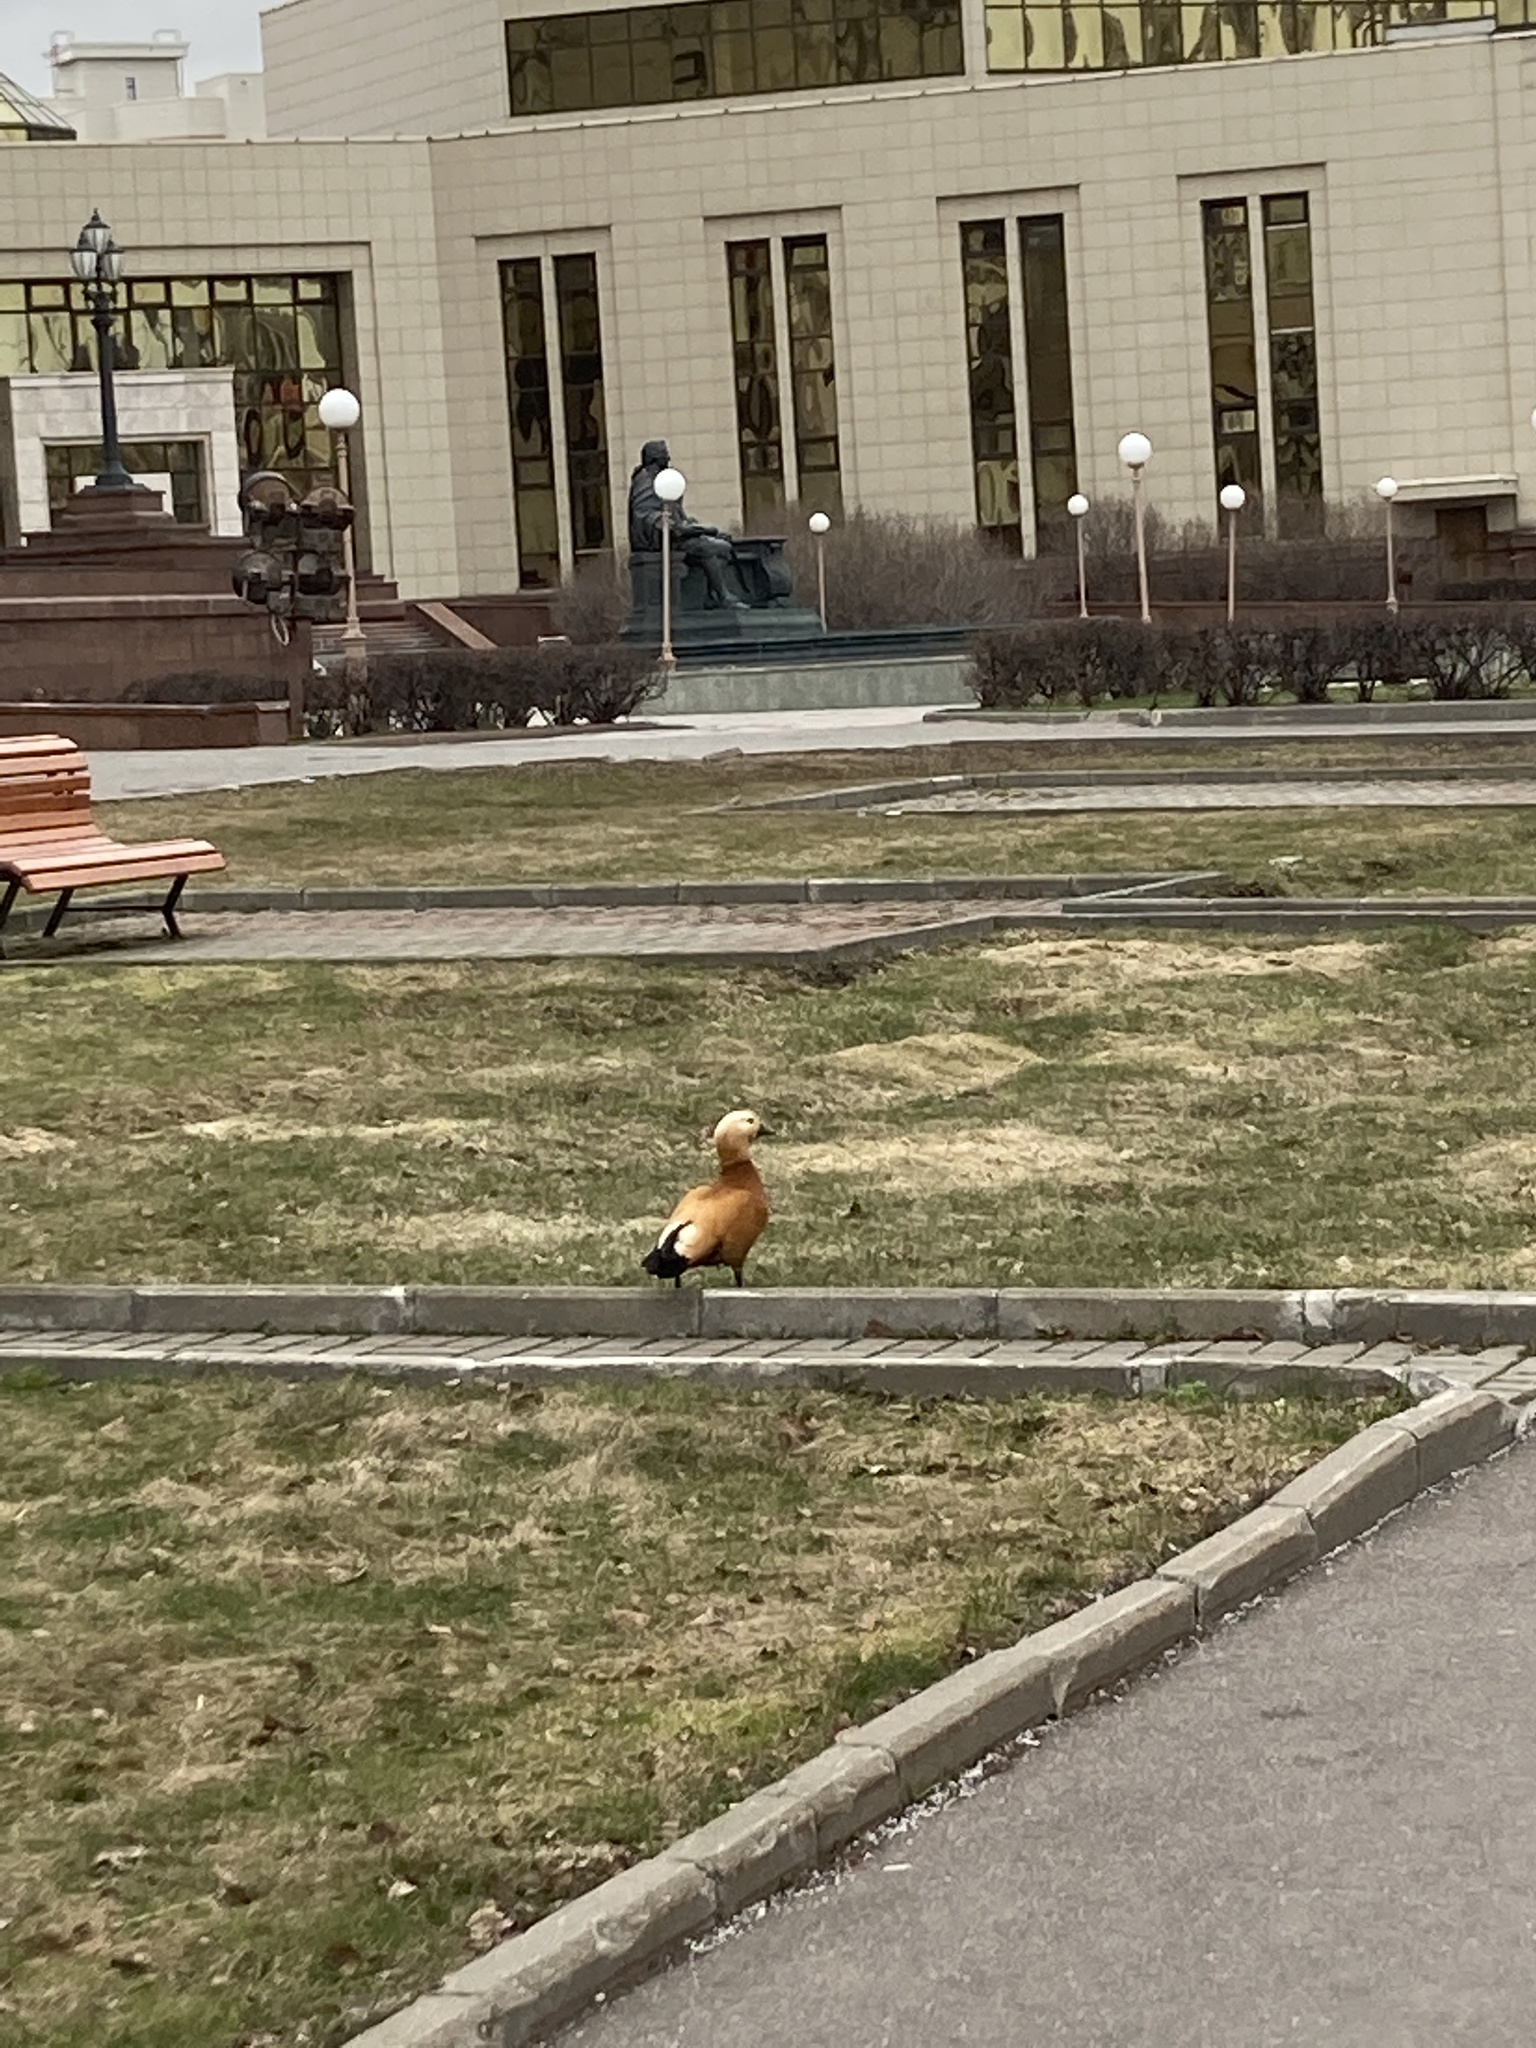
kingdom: Animalia
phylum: Chordata
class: Aves
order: Anseriformes
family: Anatidae
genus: Tadorna
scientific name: Tadorna ferruginea
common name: Ruddy shelduck
